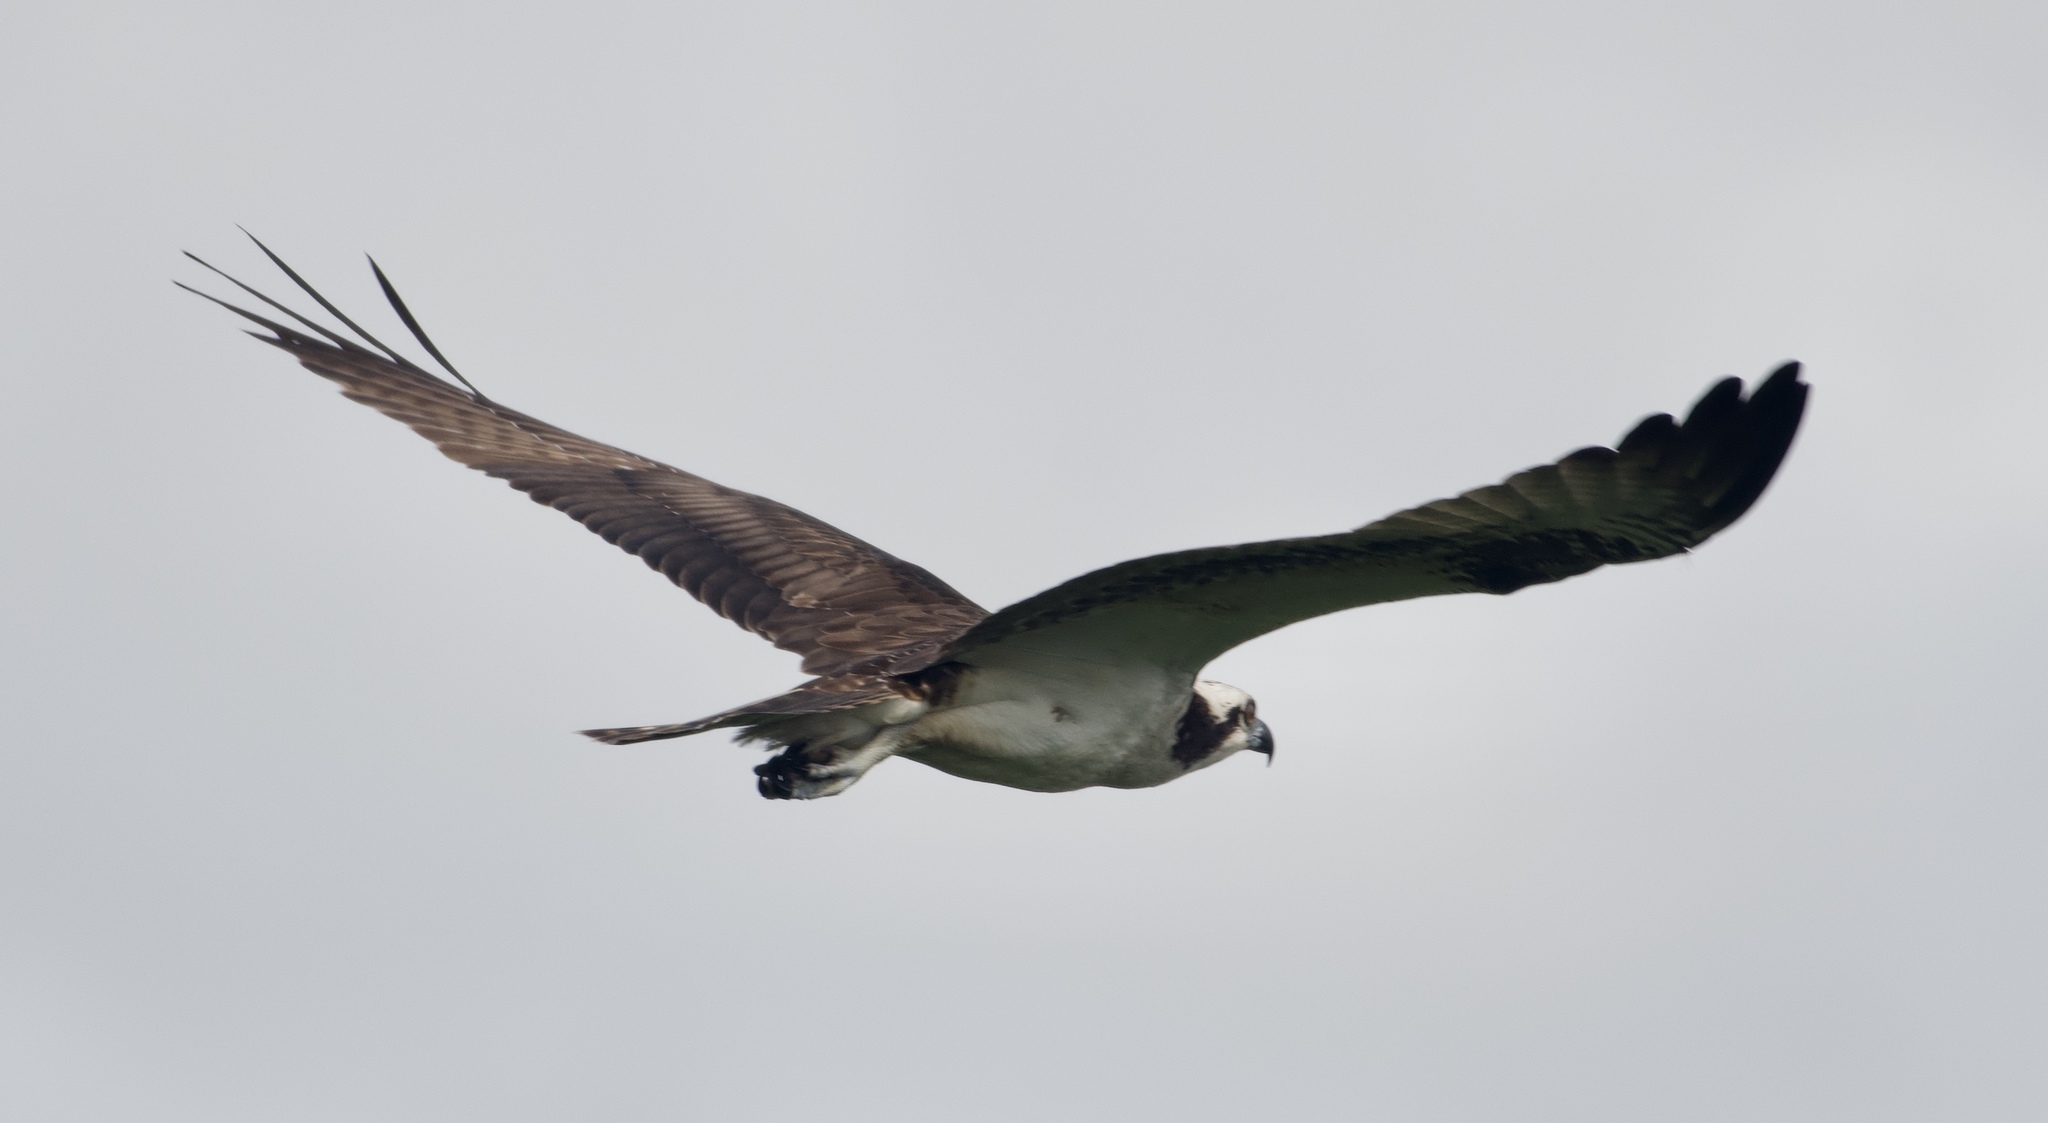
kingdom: Animalia
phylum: Chordata
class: Aves
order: Accipitriformes
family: Pandionidae
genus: Pandion
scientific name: Pandion haliaetus
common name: Osprey
